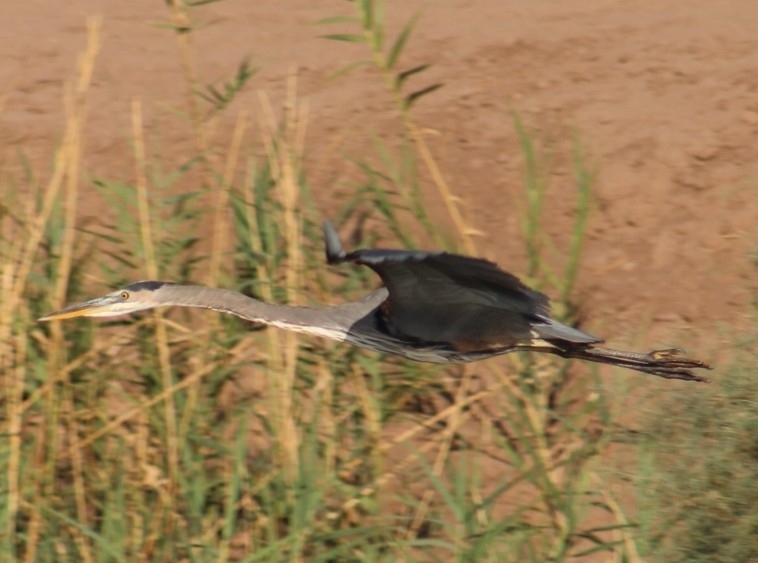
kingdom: Animalia
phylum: Chordata
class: Aves
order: Pelecaniformes
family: Ardeidae
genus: Ardea
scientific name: Ardea herodias
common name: Great blue heron
